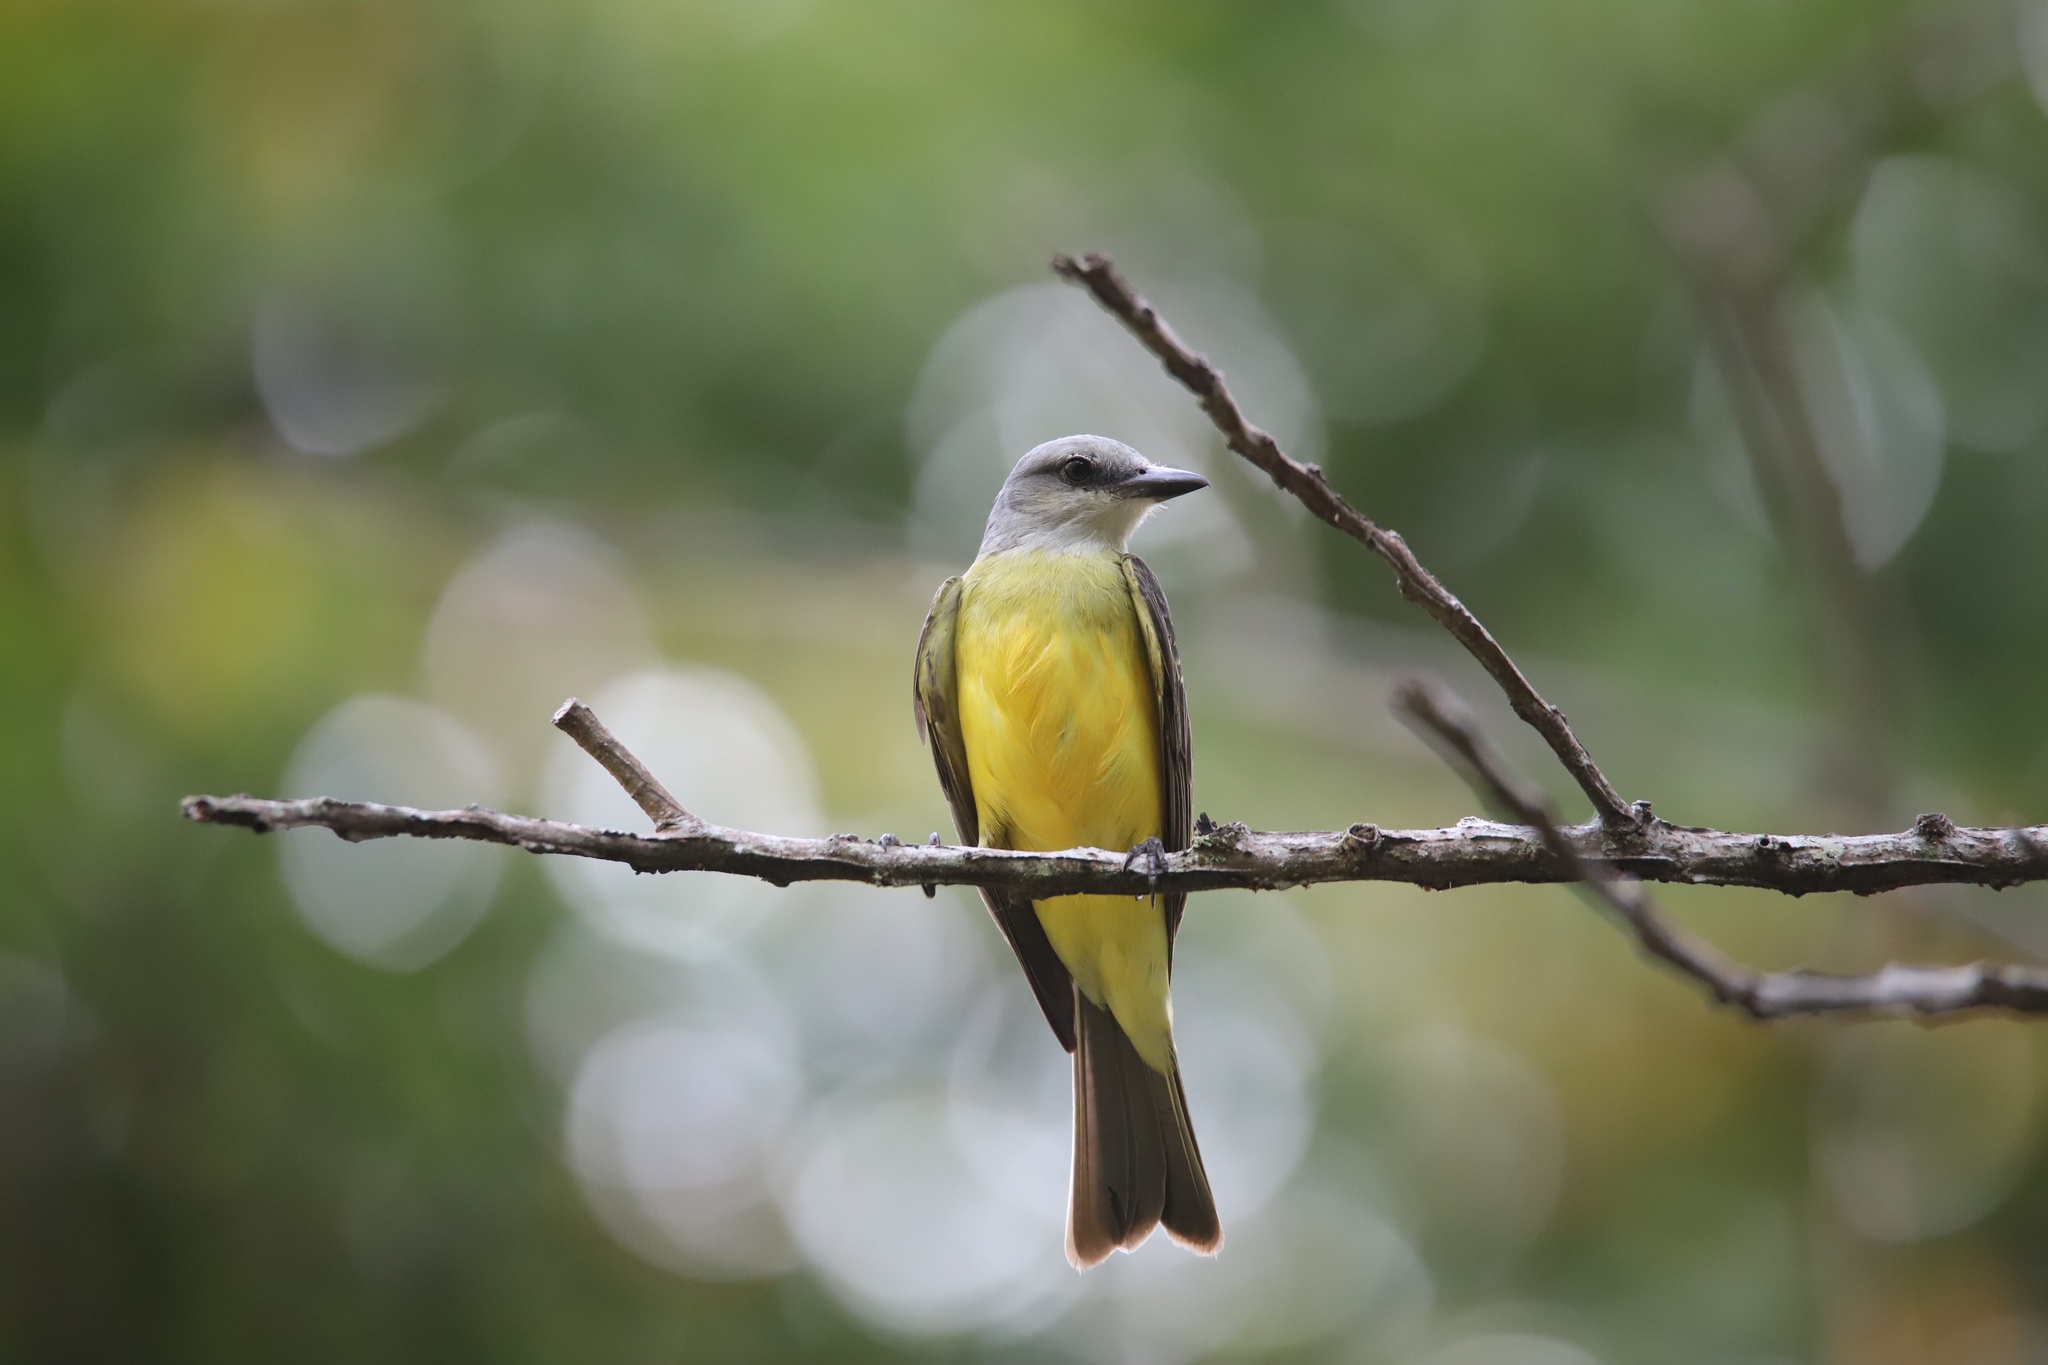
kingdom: Animalia
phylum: Chordata
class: Aves
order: Passeriformes
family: Tyrannidae
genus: Tyrannus
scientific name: Tyrannus melancholicus
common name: Tropical kingbird
